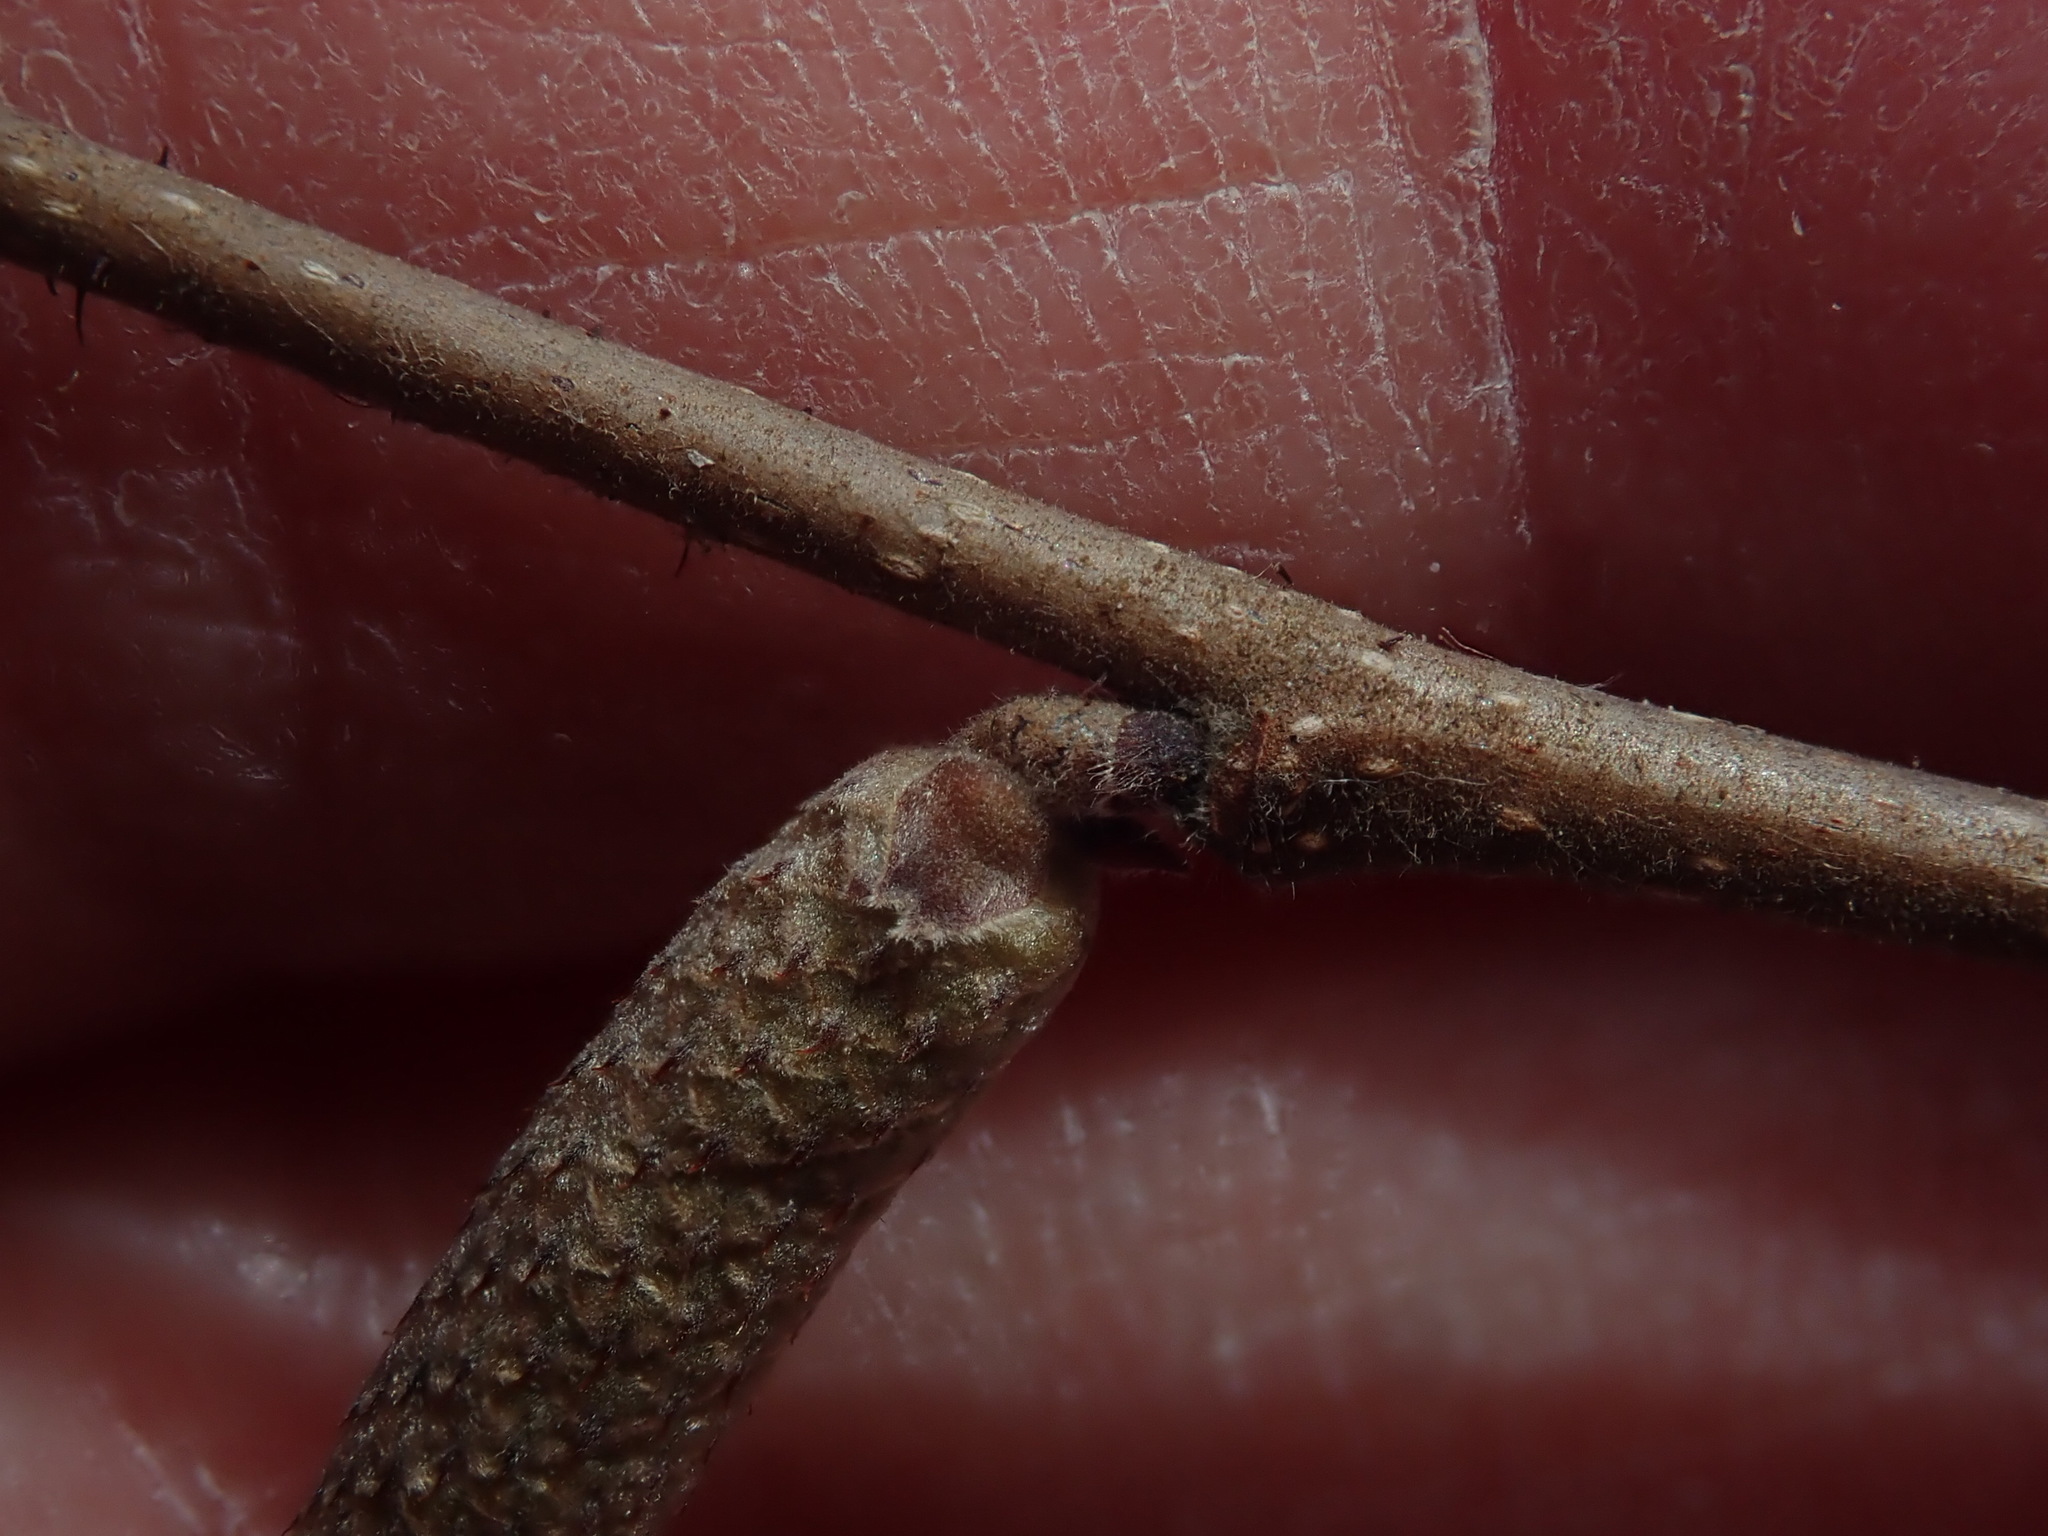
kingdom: Plantae
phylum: Tracheophyta
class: Magnoliopsida
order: Fagales
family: Betulaceae
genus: Corylus
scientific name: Corylus americana
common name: American hazel
